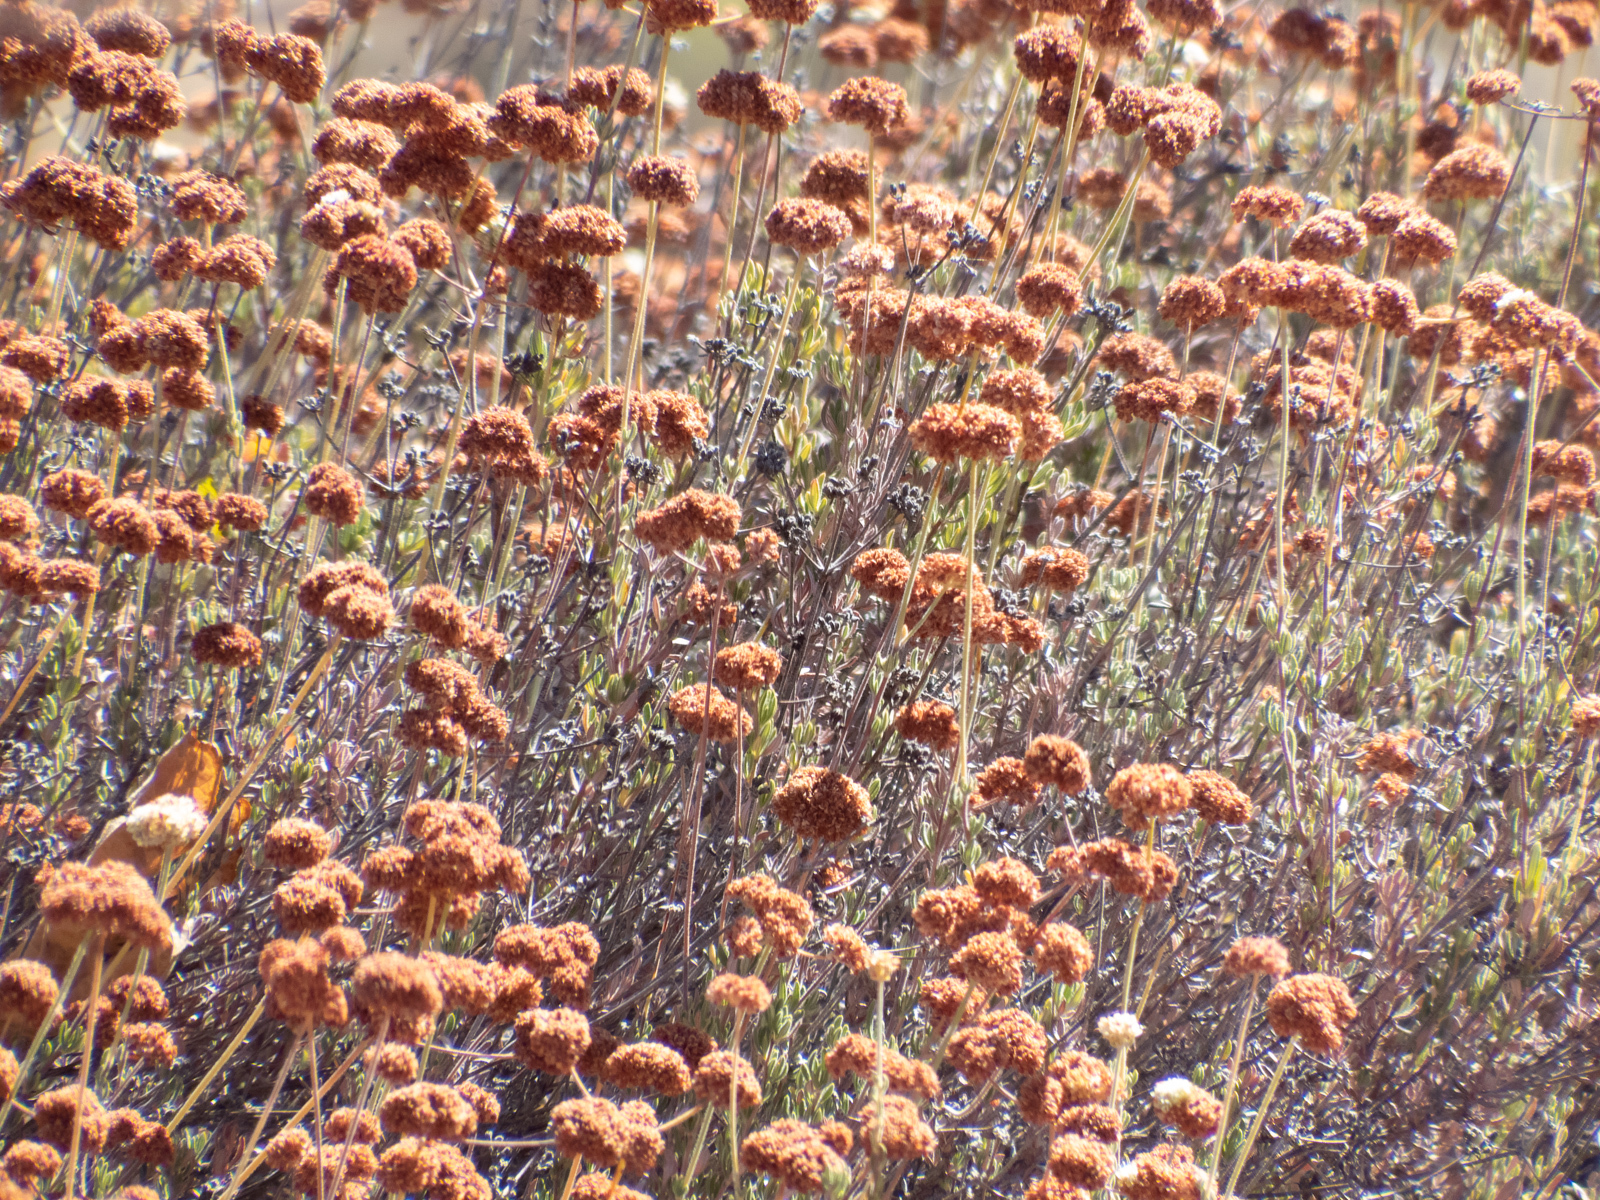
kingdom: Plantae
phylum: Tracheophyta
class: Magnoliopsida
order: Caryophyllales
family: Polygonaceae
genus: Eriogonum
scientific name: Eriogonum fasciculatum
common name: California wild buckwheat
